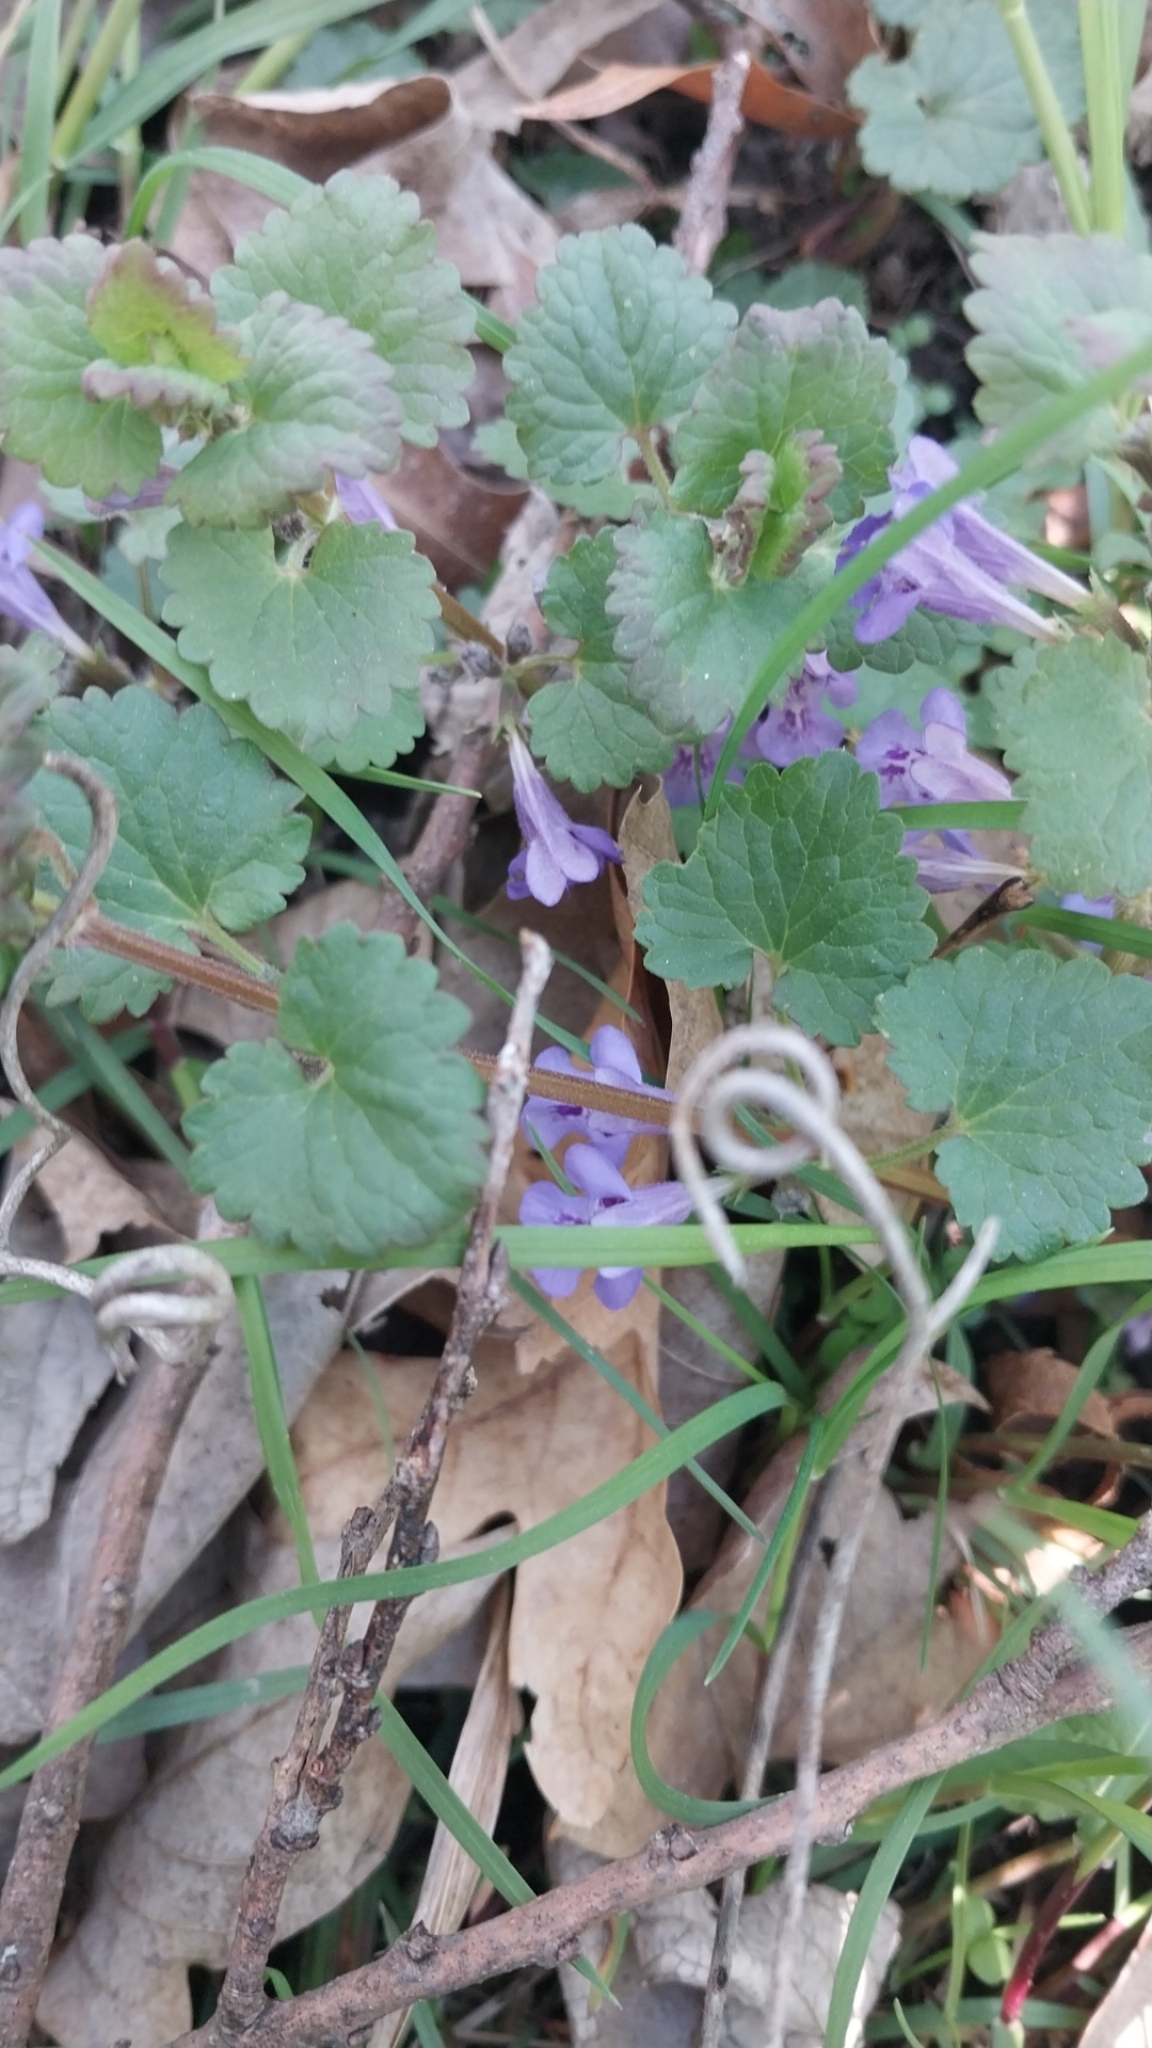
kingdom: Plantae
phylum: Tracheophyta
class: Magnoliopsida
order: Lamiales
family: Lamiaceae
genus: Glechoma
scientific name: Glechoma hederacea
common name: Ground ivy
